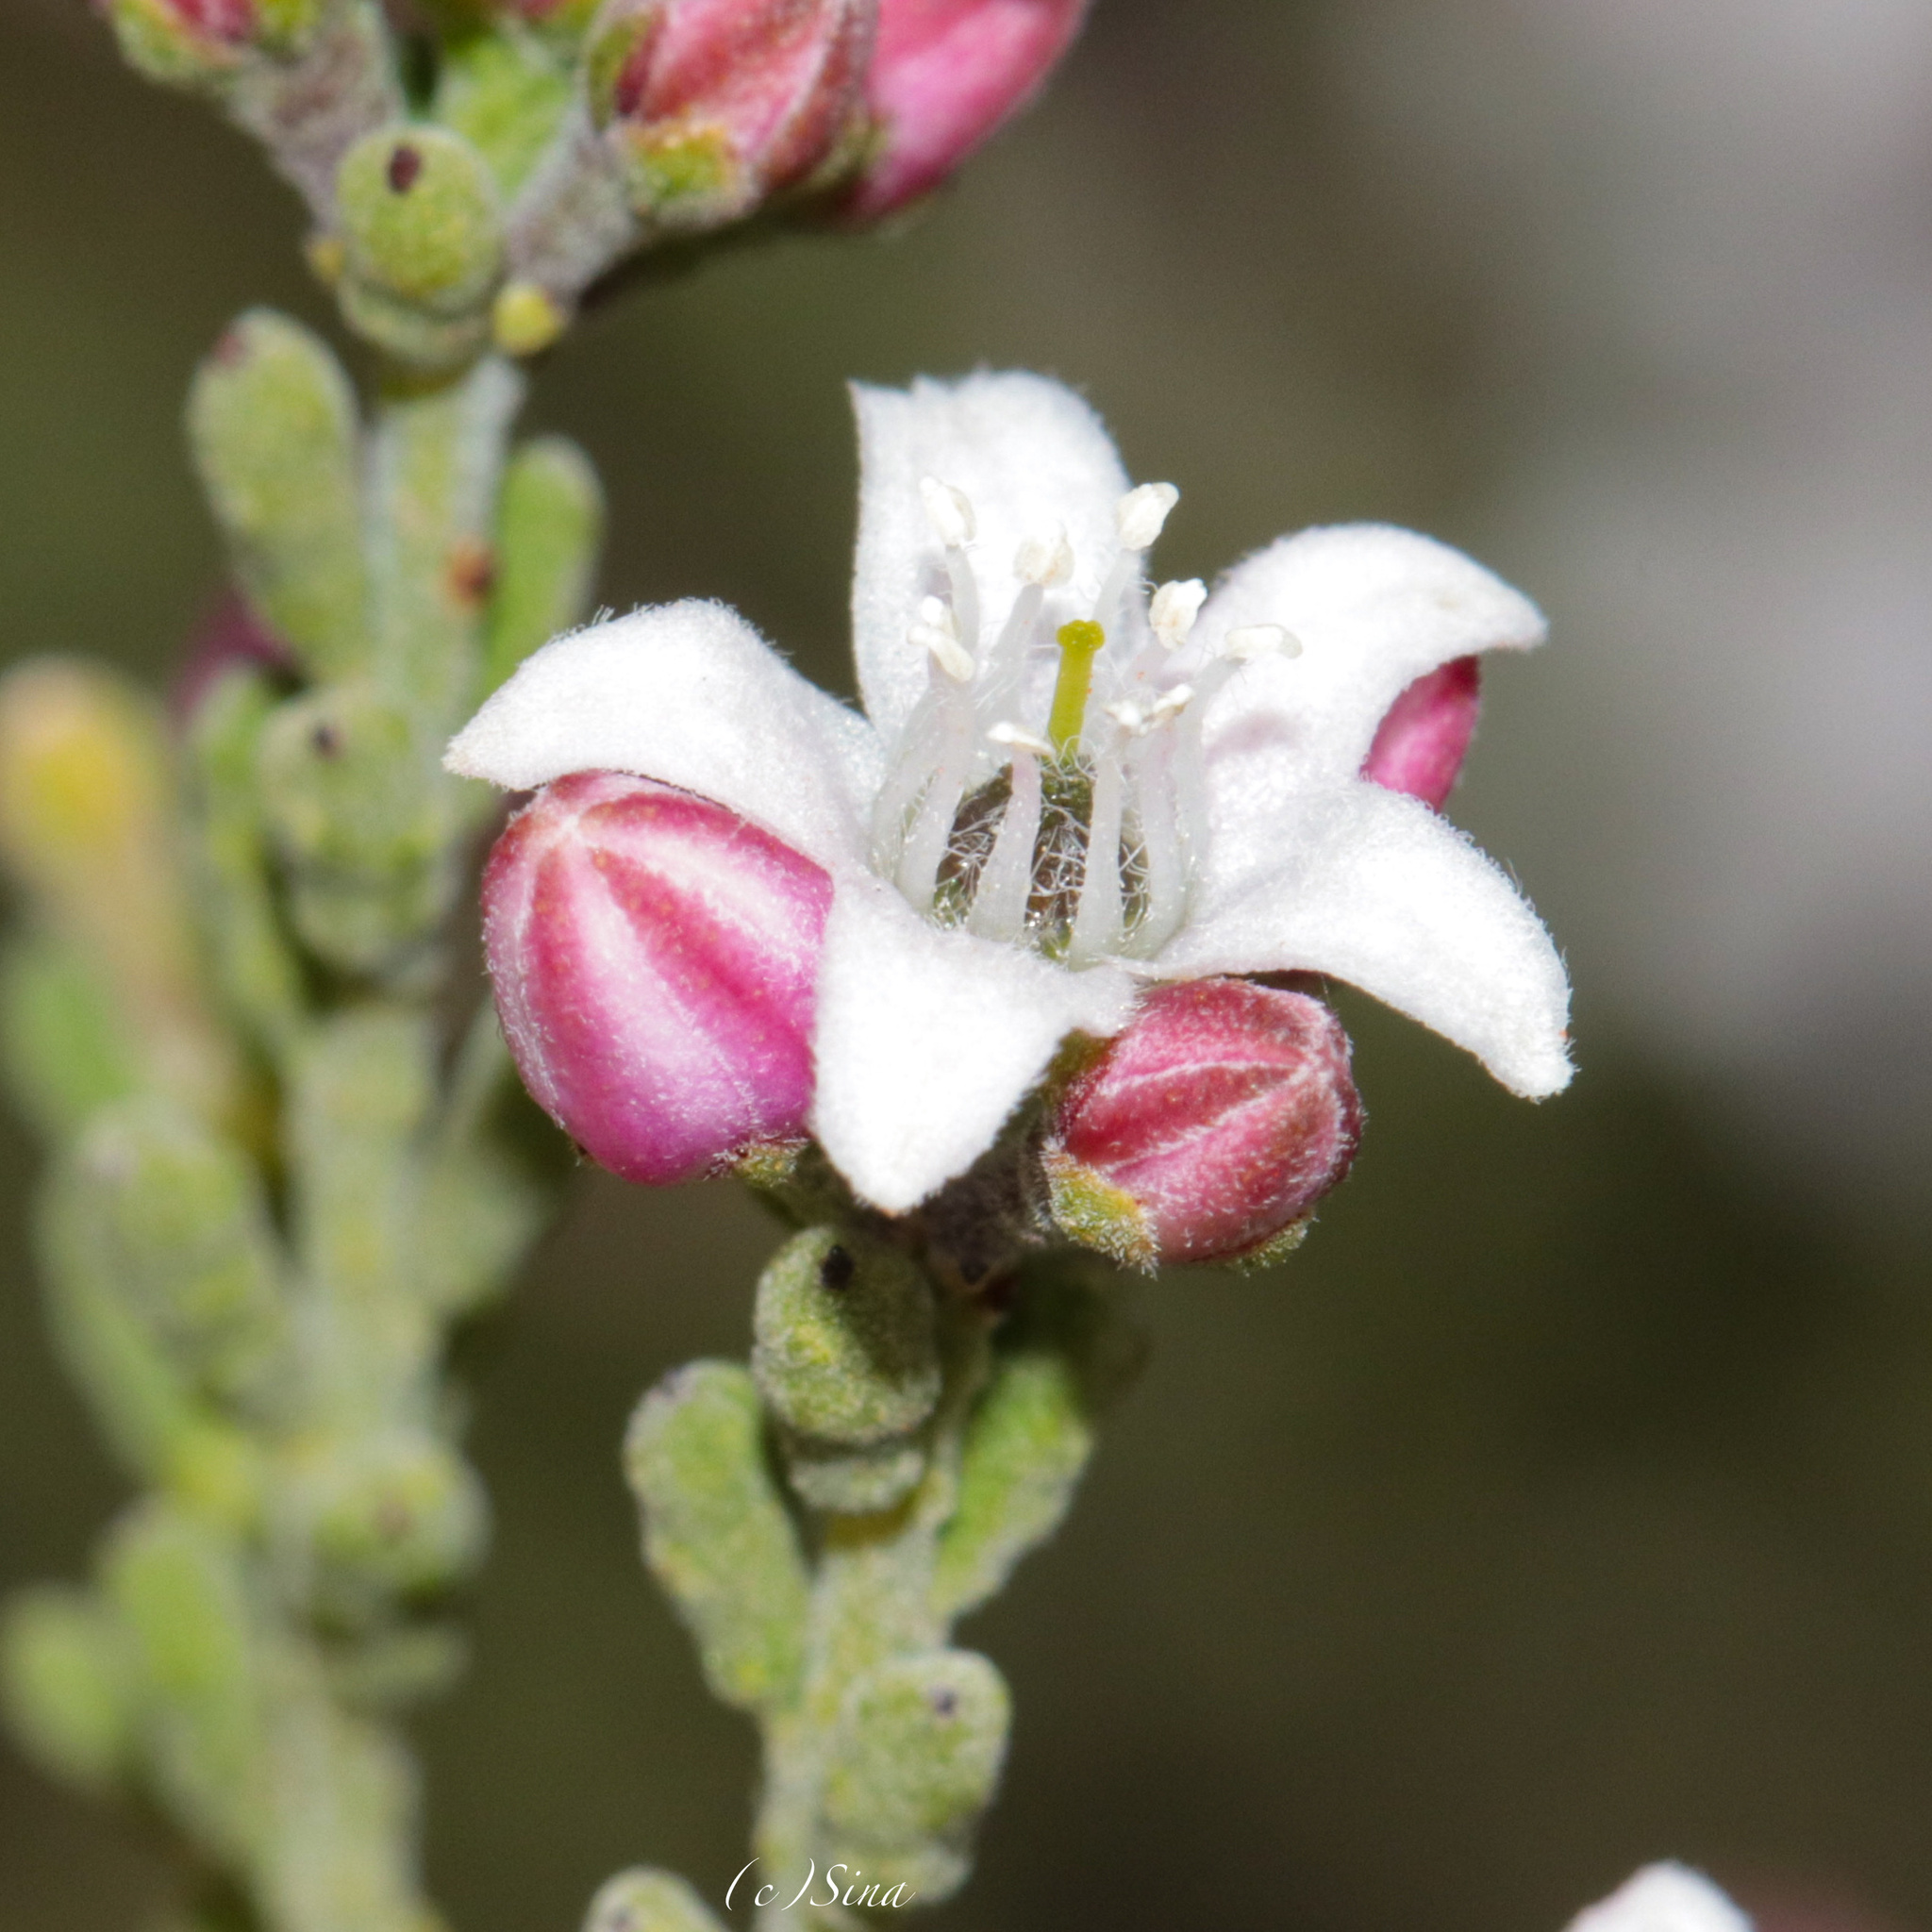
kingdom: Plantae
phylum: Tracheophyta
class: Magnoliopsida
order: Sapindales
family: Rutaceae
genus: Philotheca
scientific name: Philotheca tomentella
